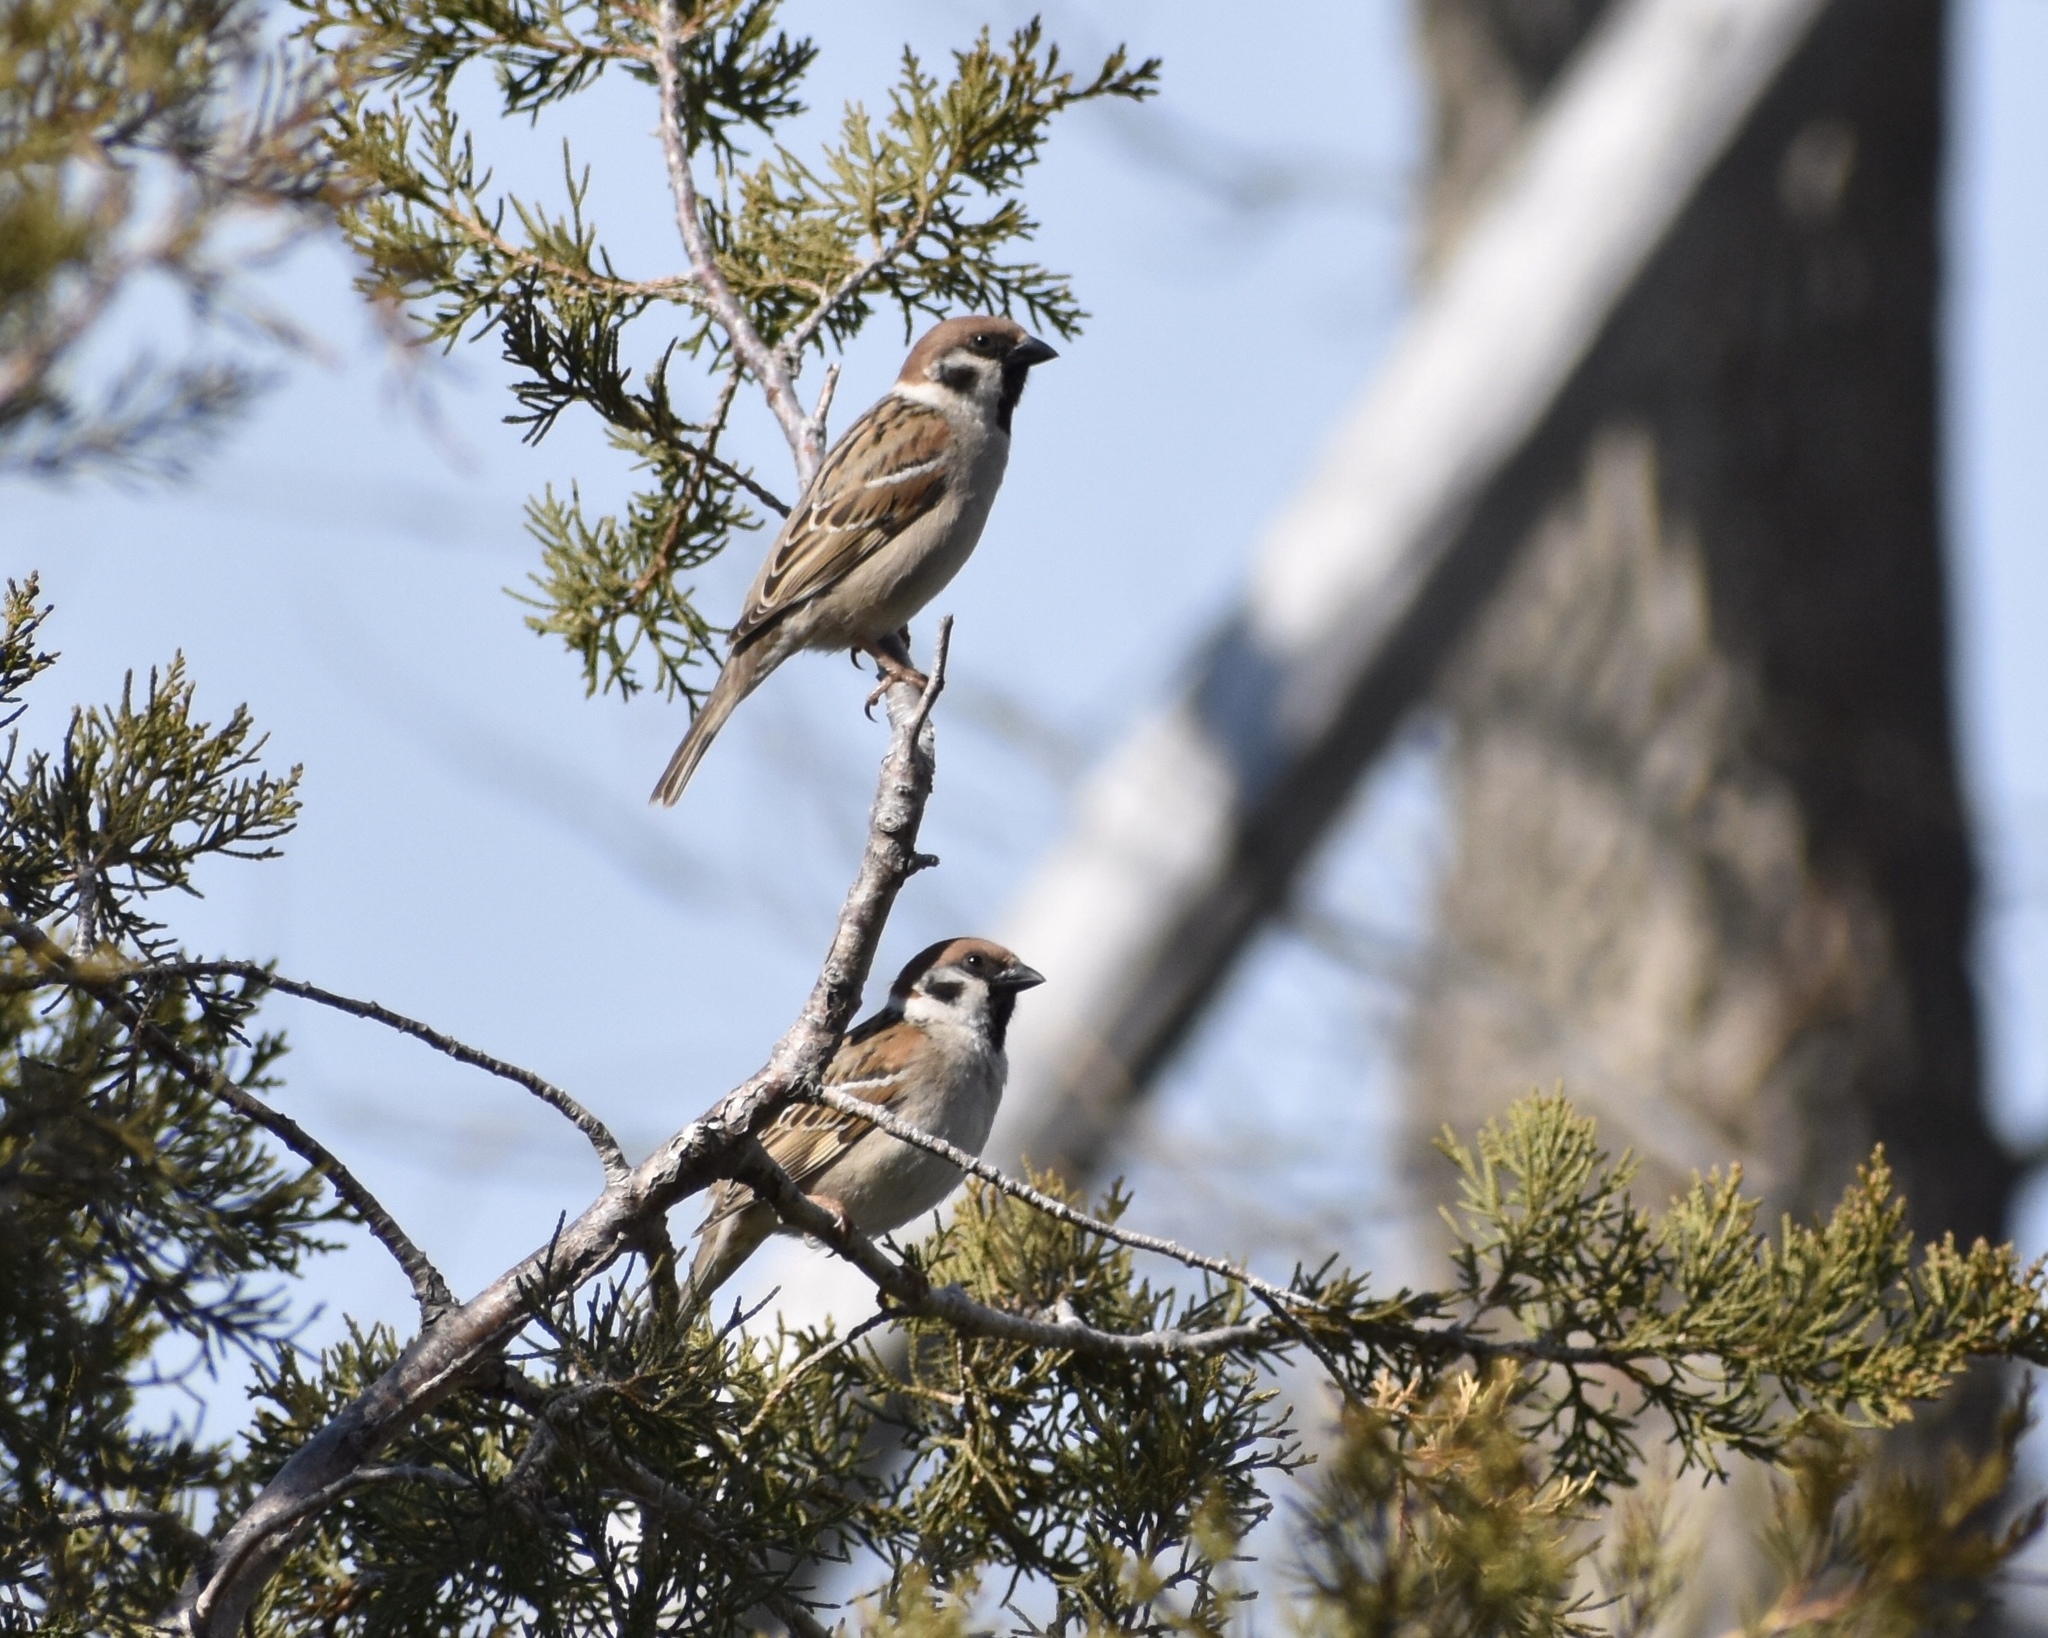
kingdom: Animalia
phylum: Chordata
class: Aves
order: Passeriformes
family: Passeridae
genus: Passer
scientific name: Passer montanus
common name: Eurasian tree sparrow
